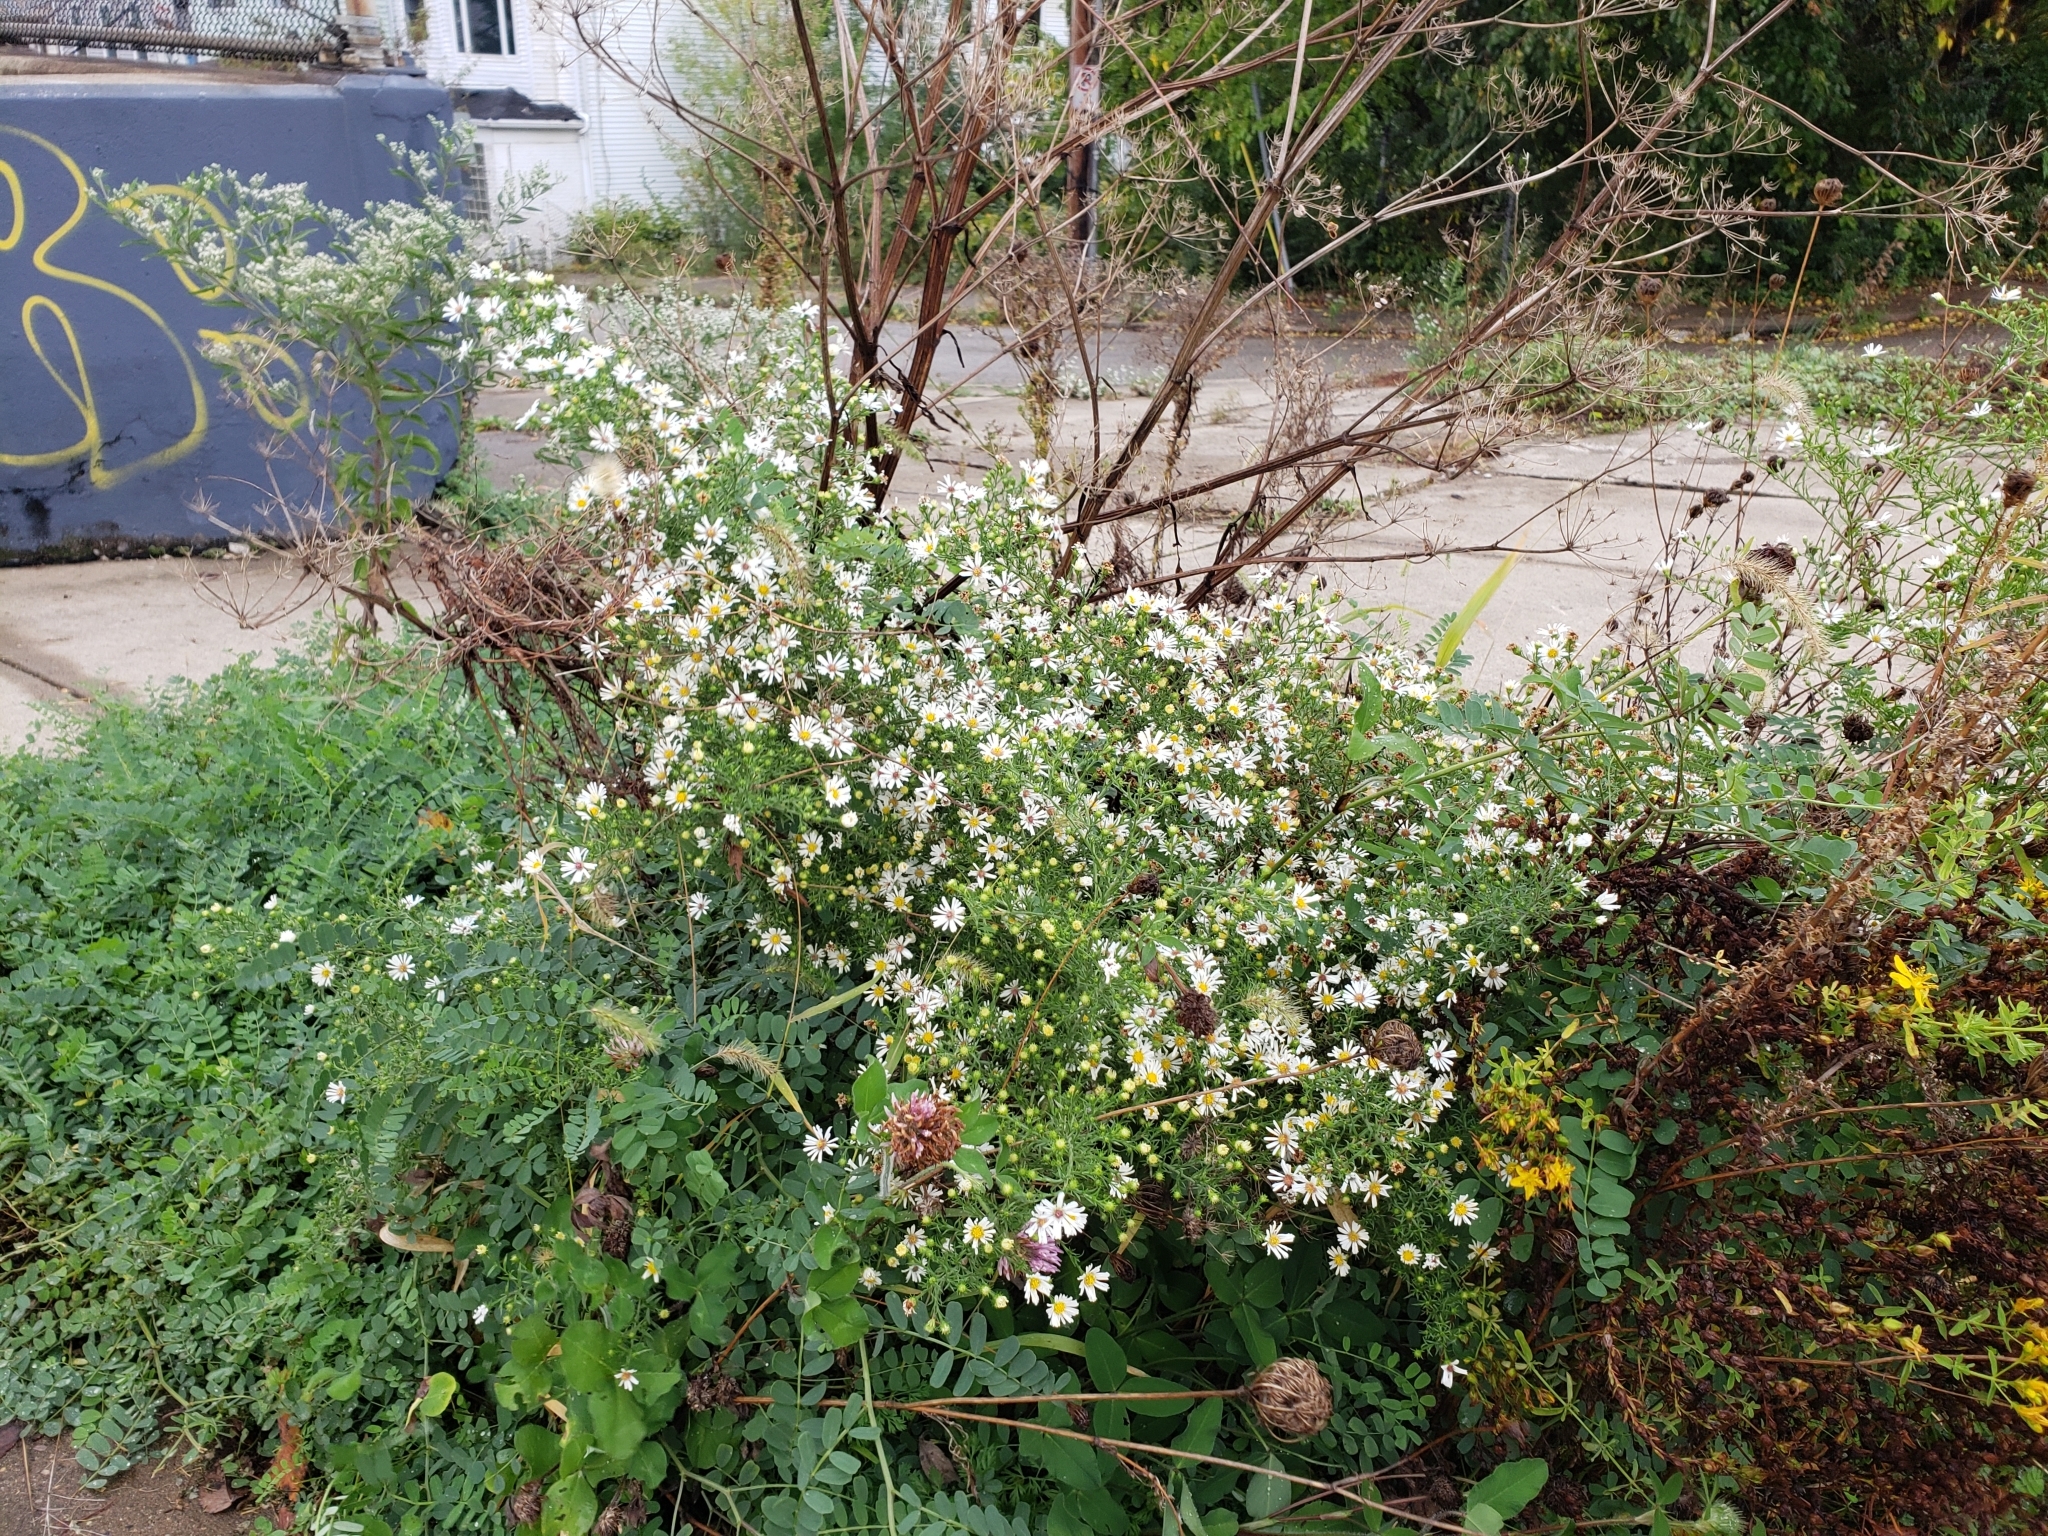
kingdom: Plantae
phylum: Tracheophyta
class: Magnoliopsida
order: Asterales
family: Asteraceae
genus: Symphyotrichum
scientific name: Symphyotrichum pilosum
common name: Awl aster
